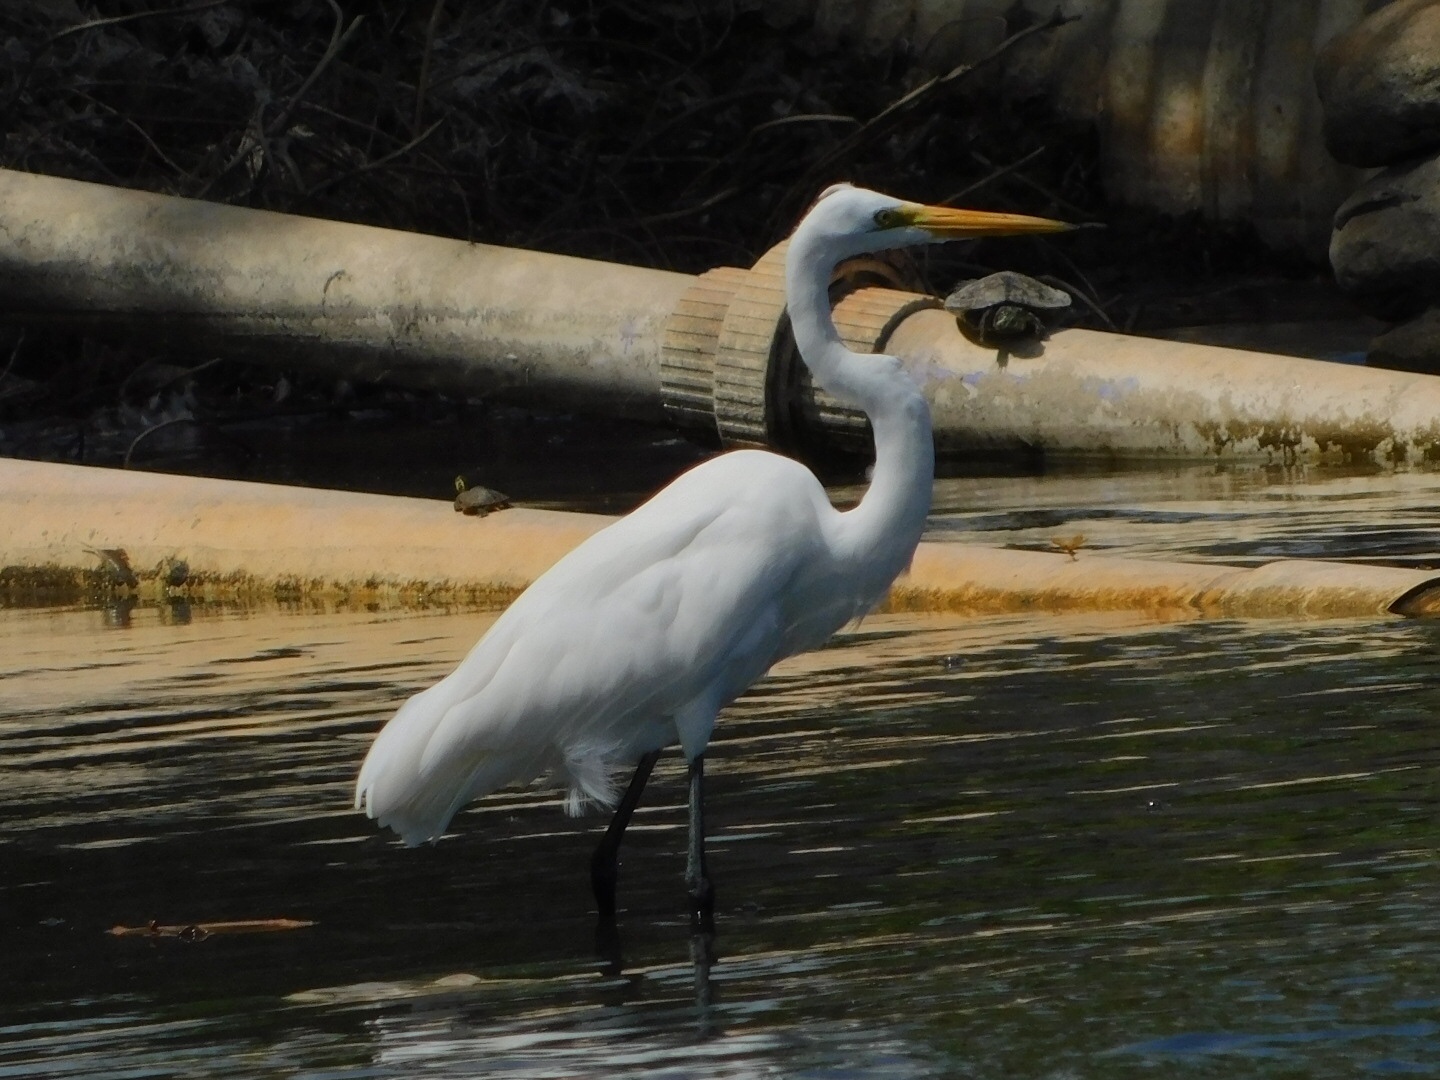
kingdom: Animalia
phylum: Chordata
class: Aves
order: Pelecaniformes
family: Ardeidae
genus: Ardea
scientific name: Ardea alba
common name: Great egret
